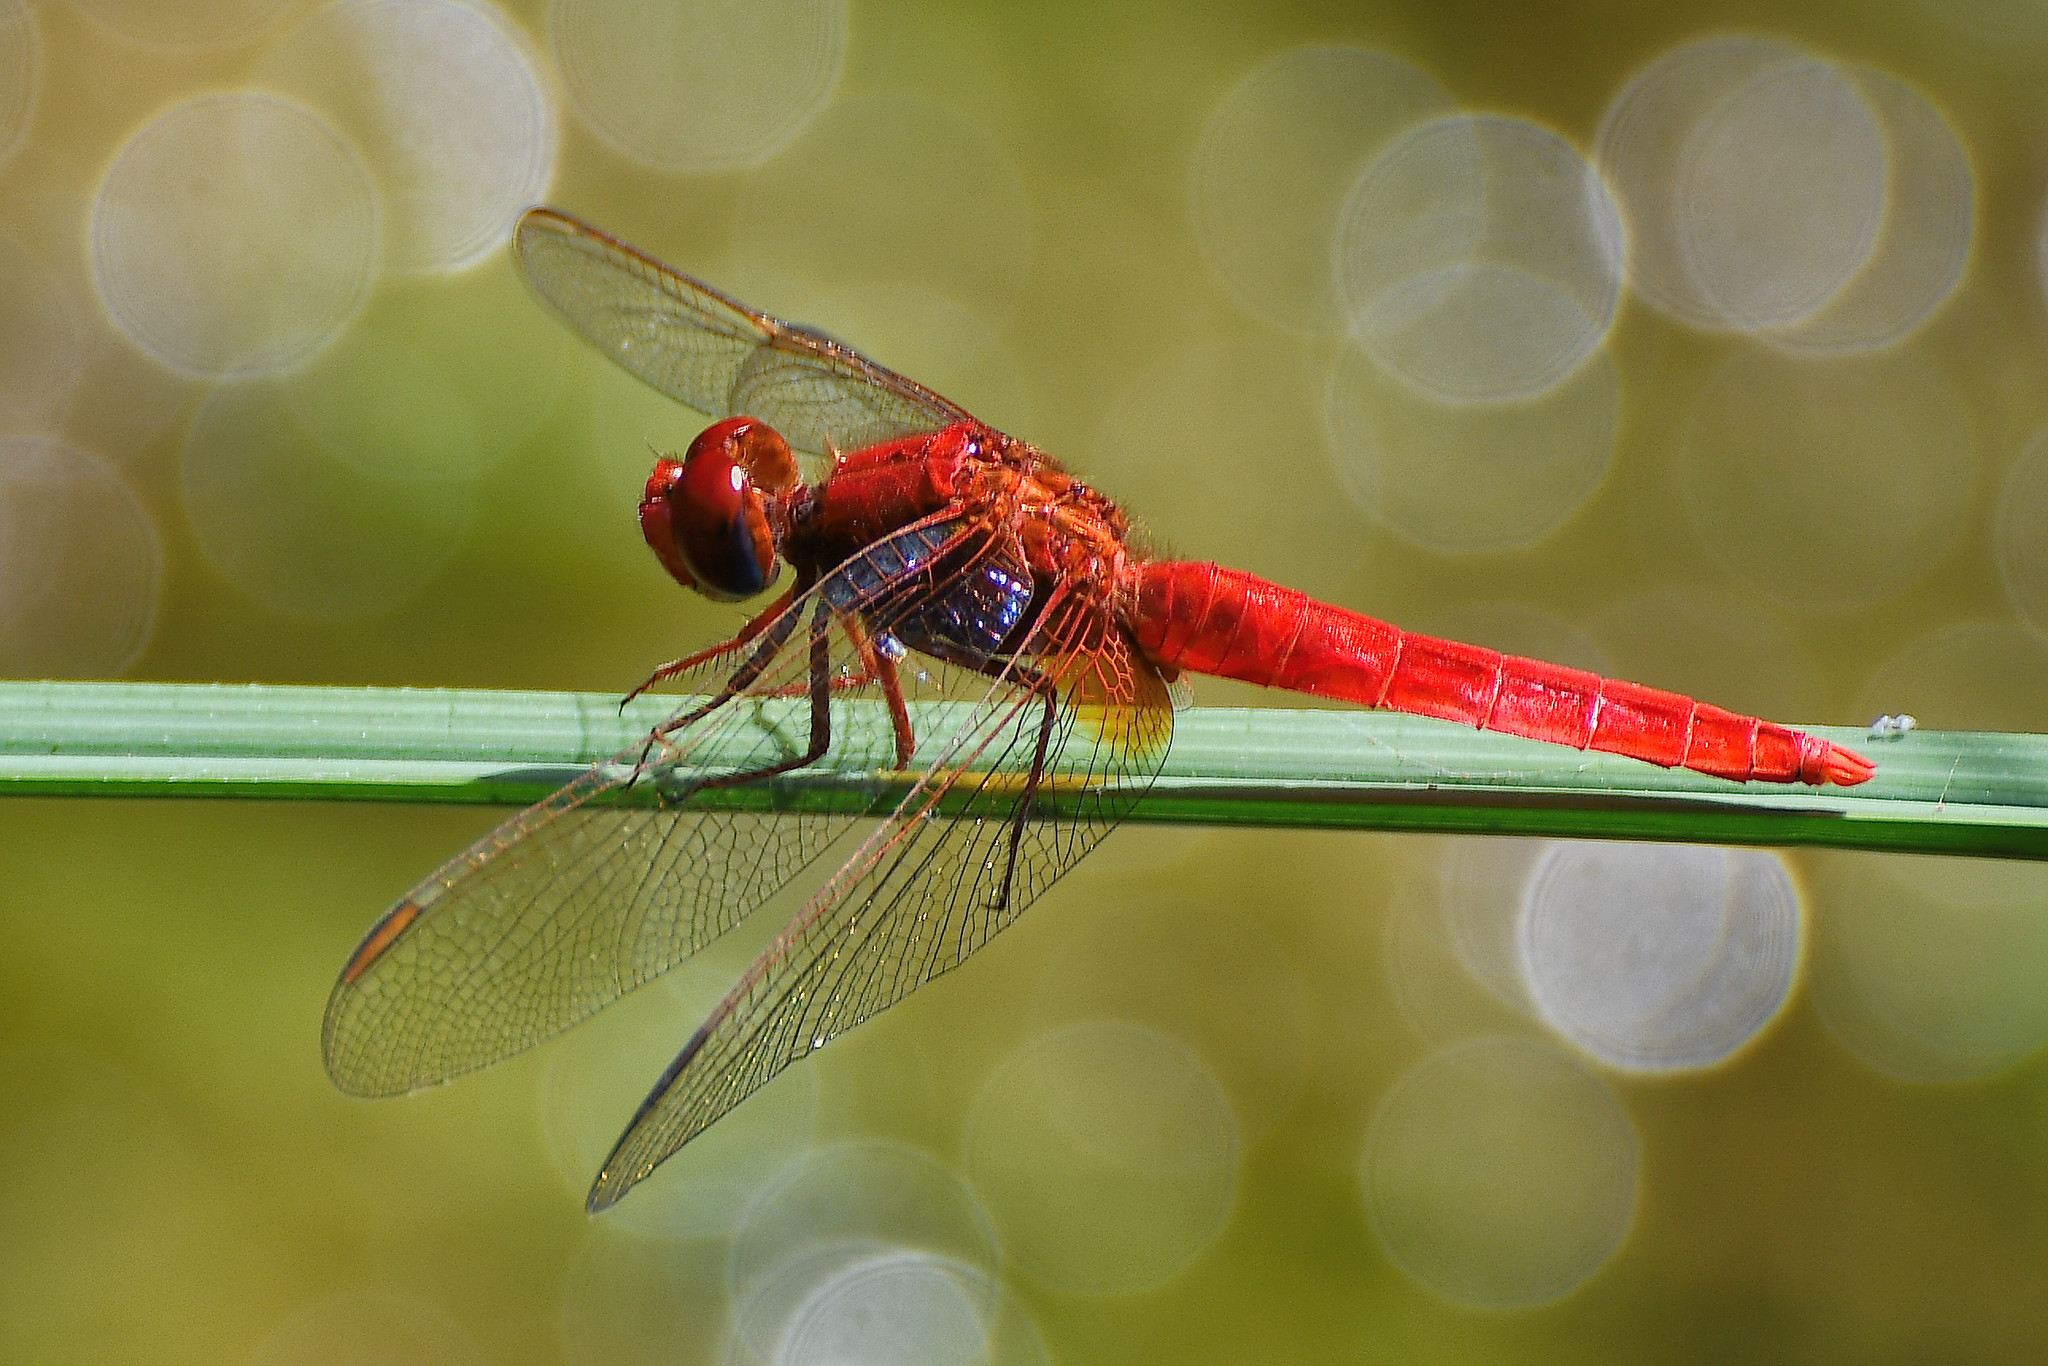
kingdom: Animalia
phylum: Arthropoda
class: Insecta
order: Odonata
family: Libellulidae
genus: Crocothemis
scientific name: Crocothemis erythraea
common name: Scarlet dragonfly
